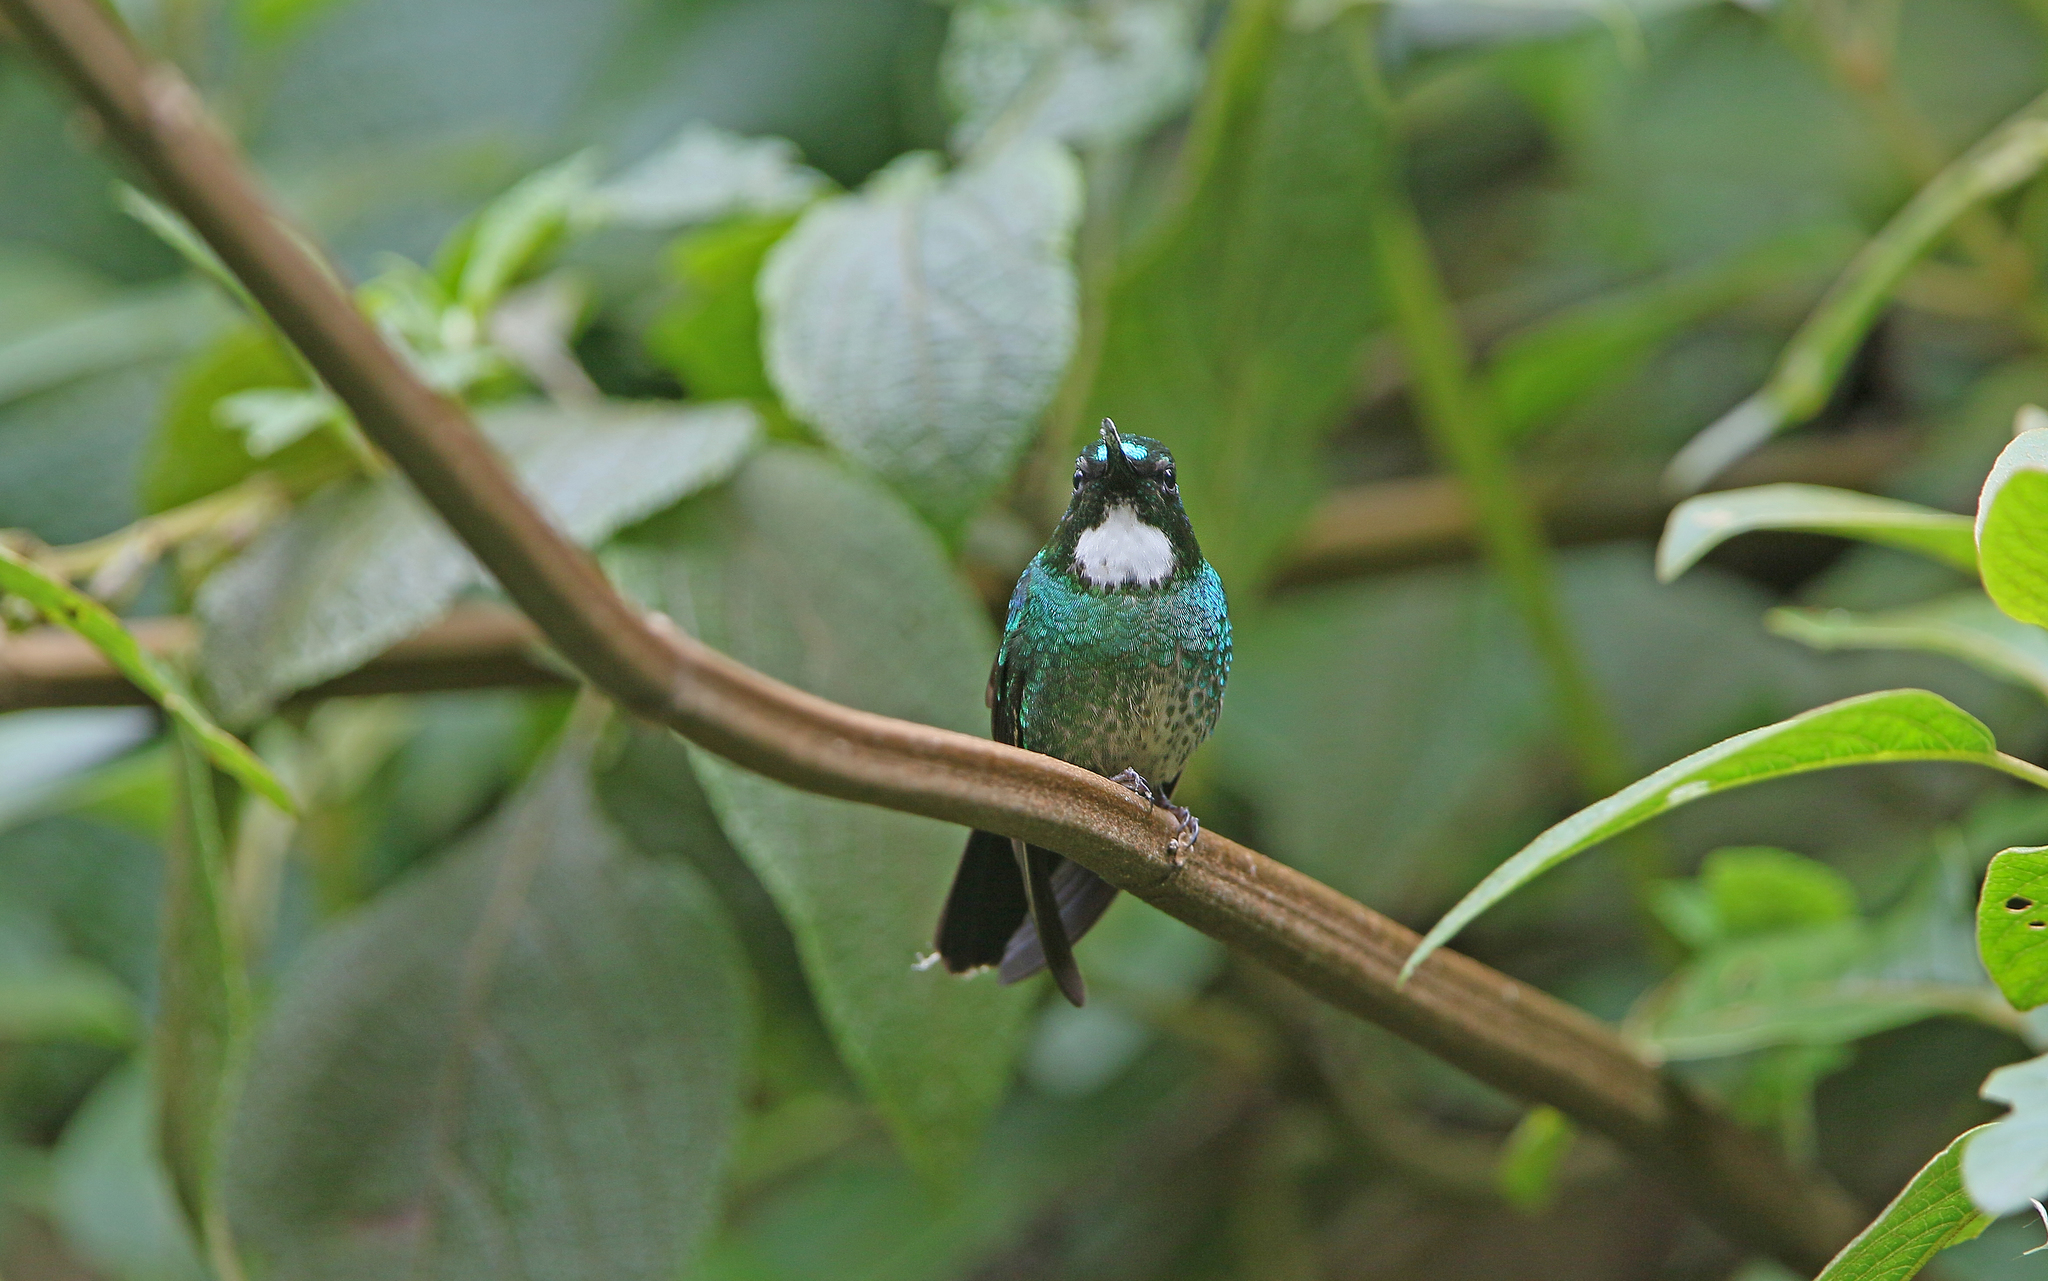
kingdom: Animalia
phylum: Chordata
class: Aves
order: Apodiformes
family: Trochilidae
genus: Heliangelus
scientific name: Heliangelus exortis
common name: Tourmaline sunangel
